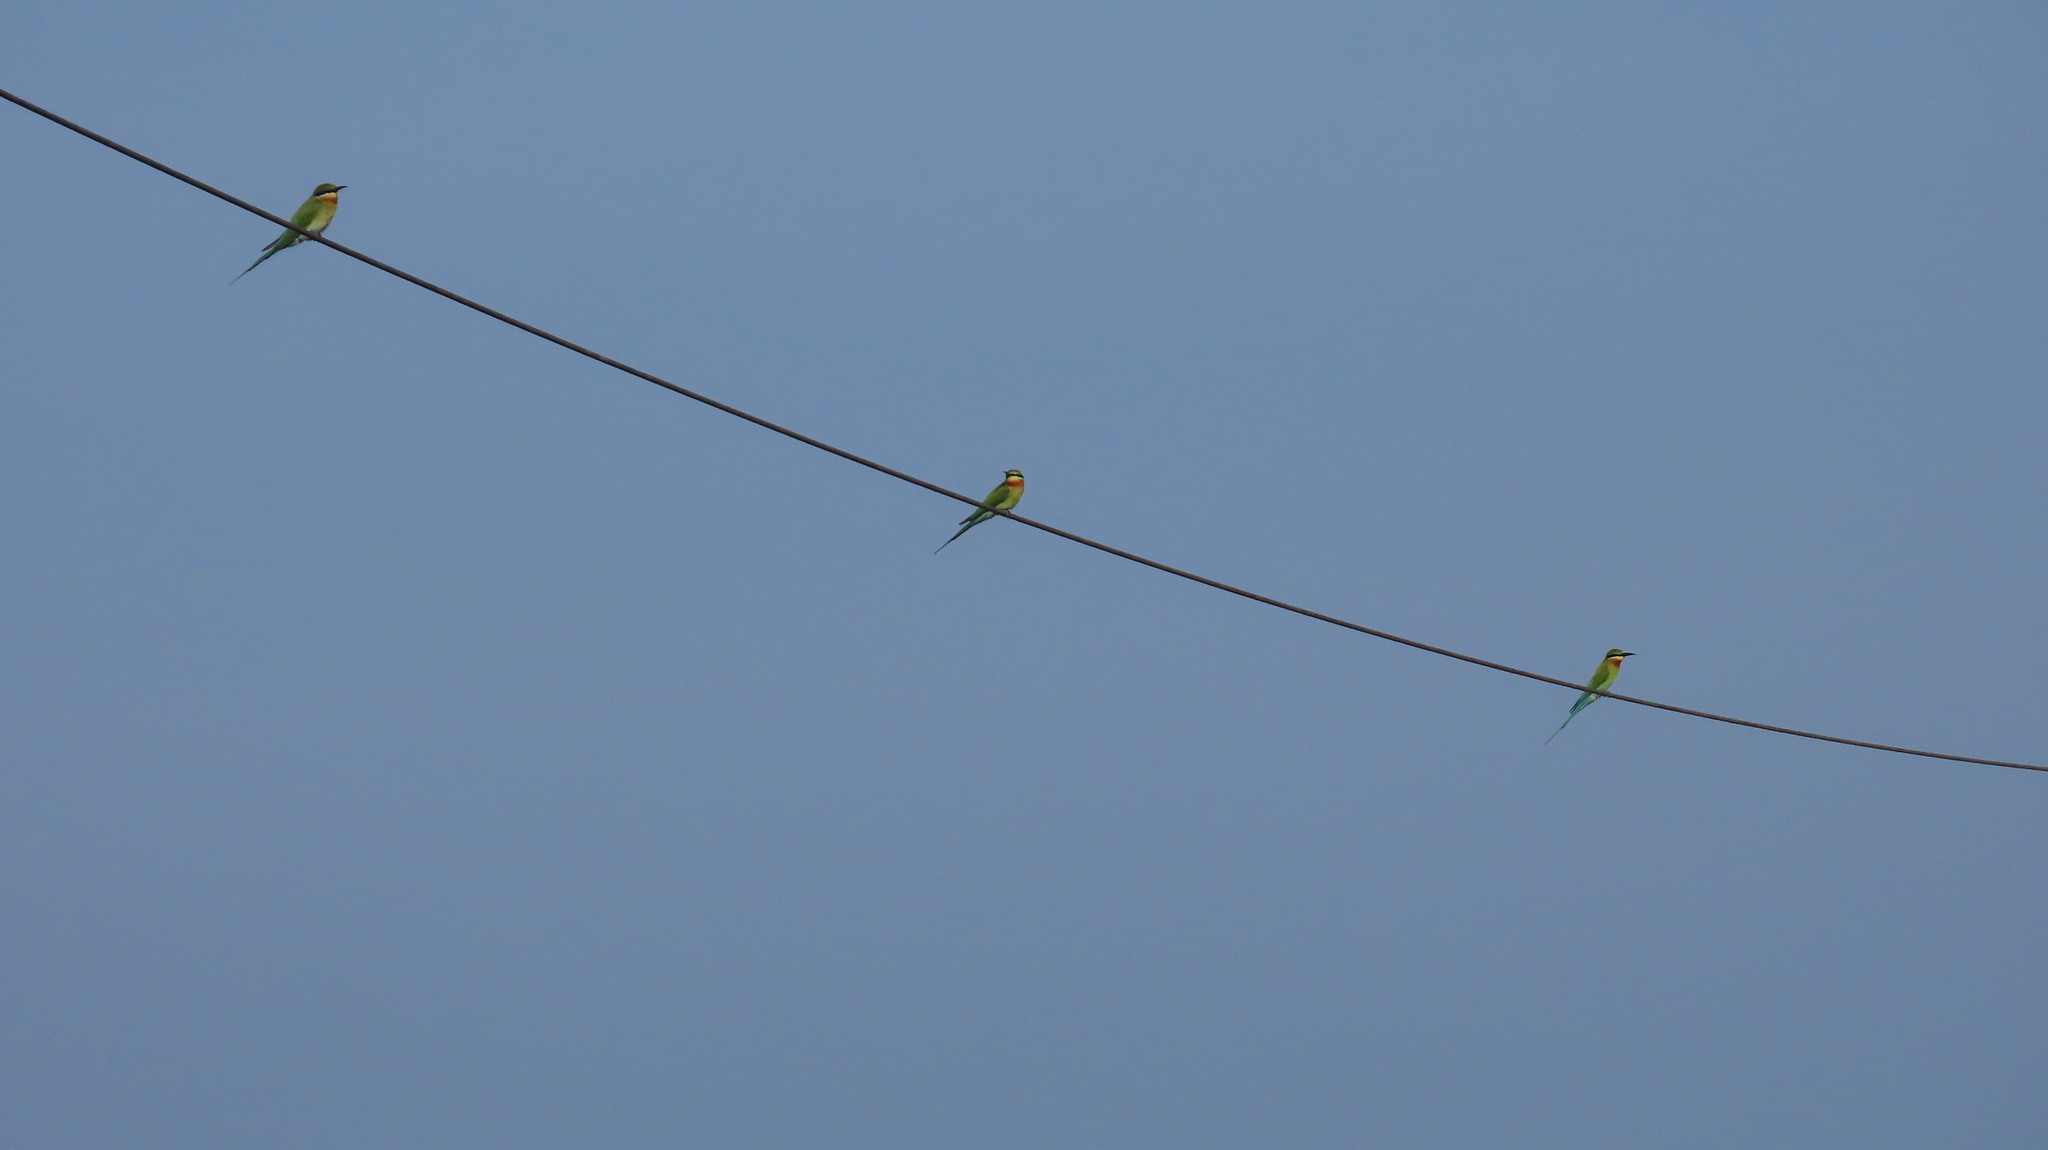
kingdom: Animalia
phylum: Chordata
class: Aves
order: Coraciiformes
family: Meropidae
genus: Merops
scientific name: Merops philippinus
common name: Blue-tailed bee-eater
